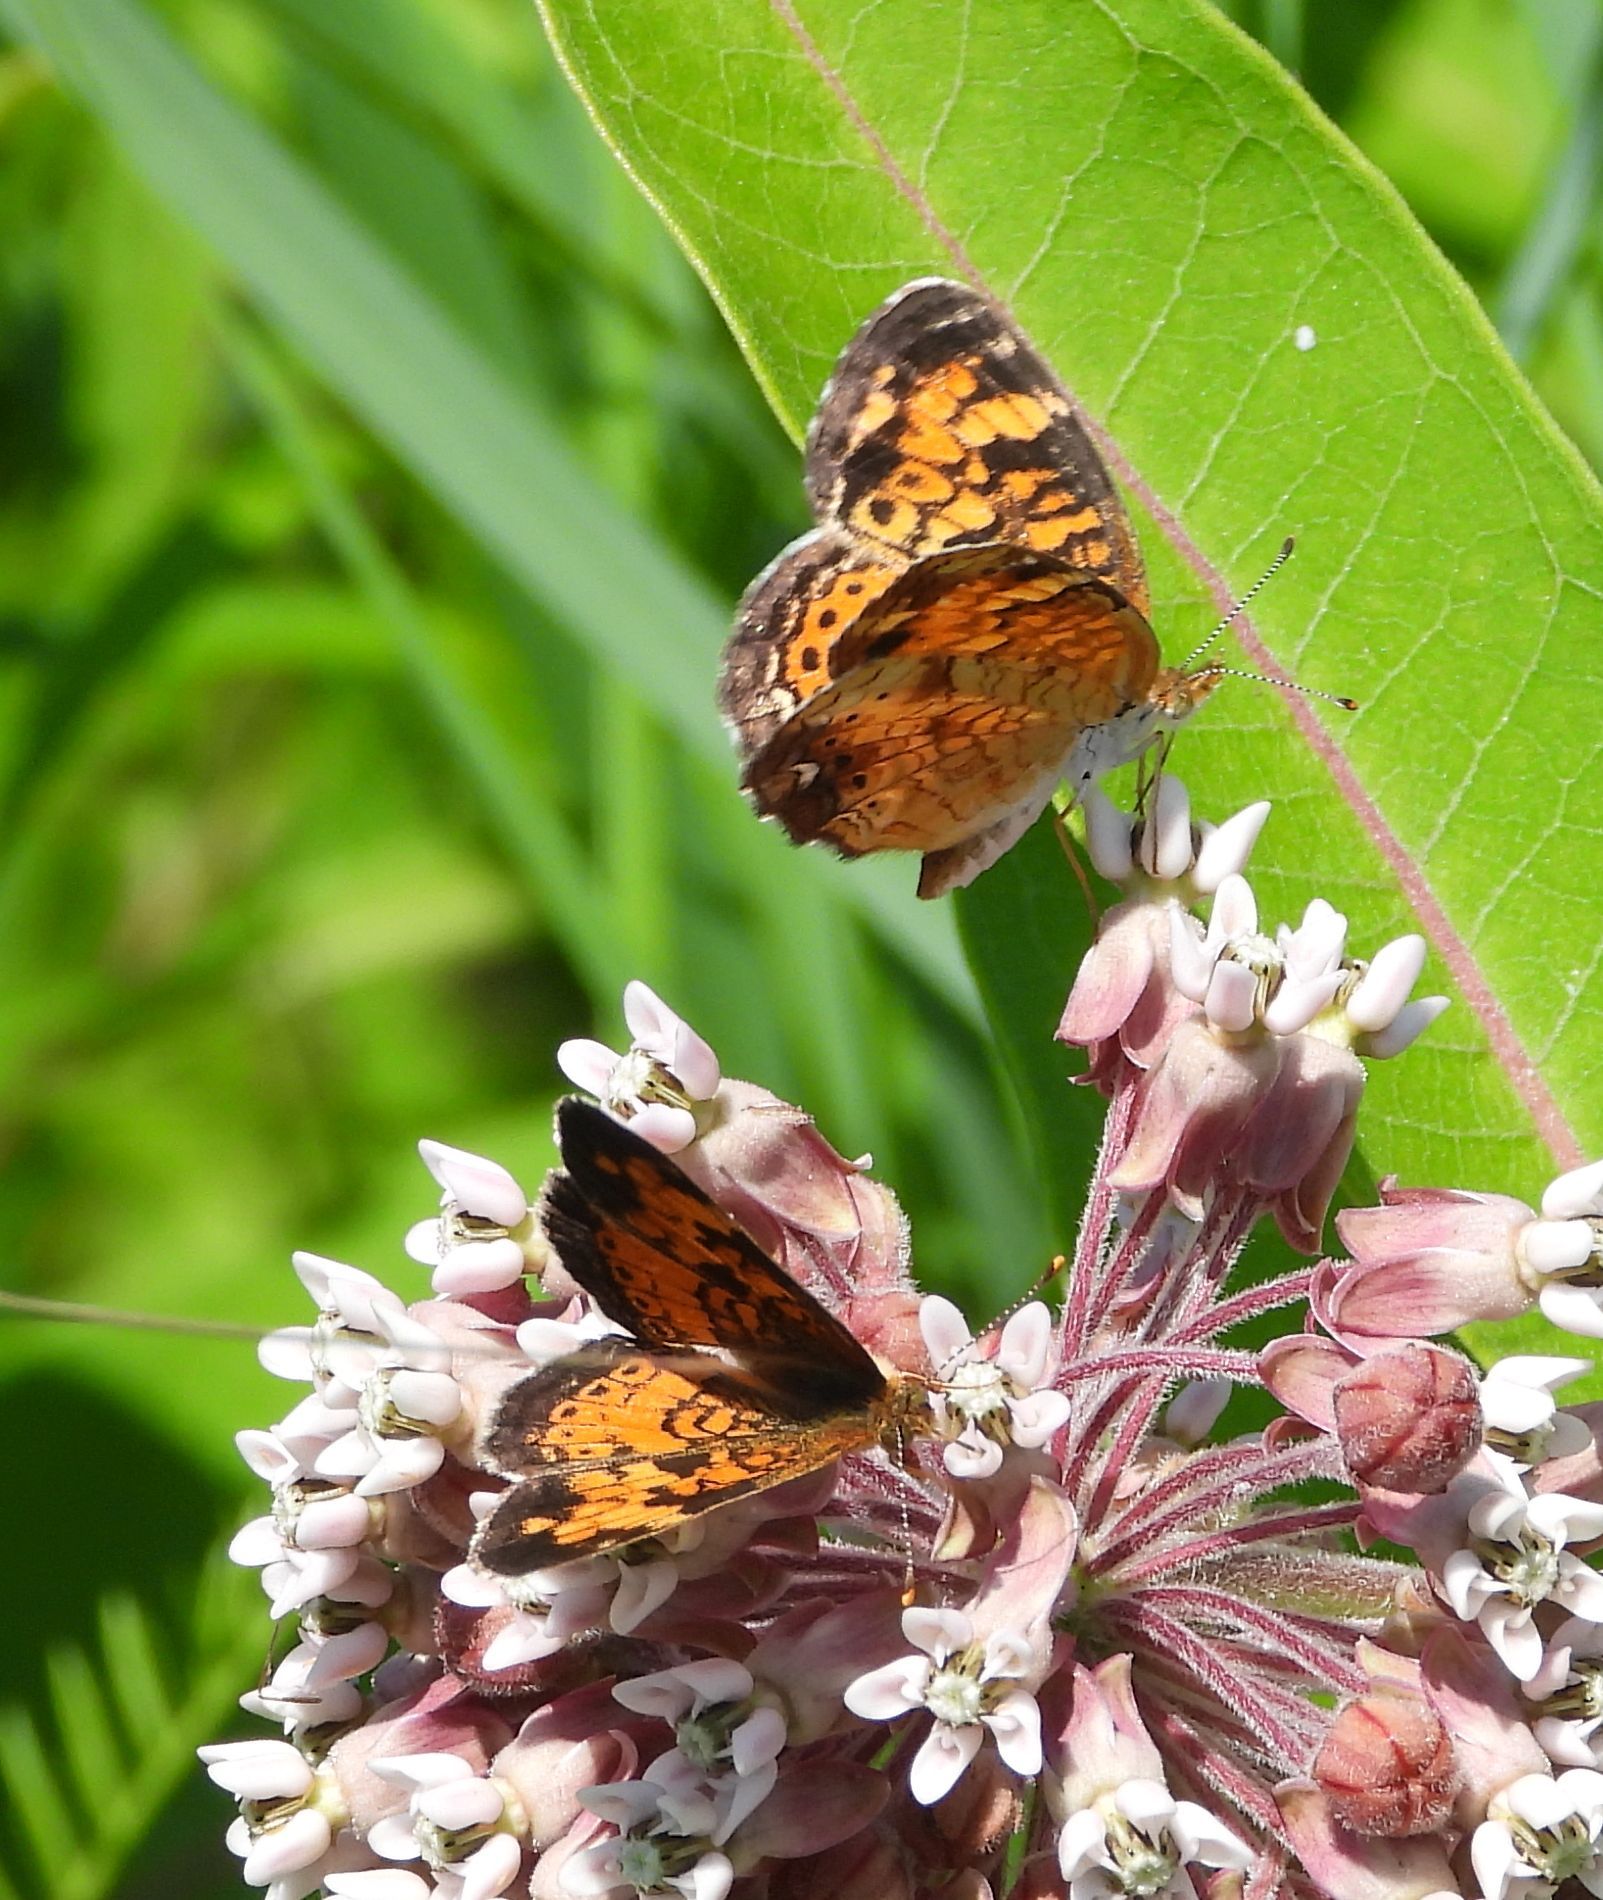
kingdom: Animalia
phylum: Arthropoda
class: Insecta
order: Lepidoptera
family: Nymphalidae
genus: Phyciodes
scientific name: Phyciodes tharos
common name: Pearl crescent
